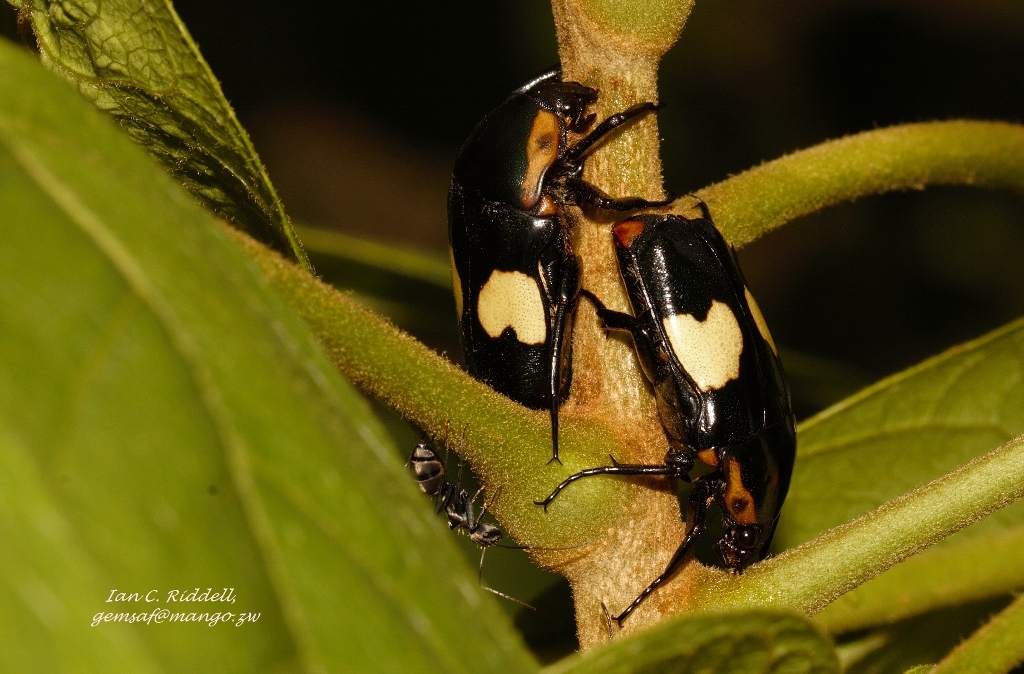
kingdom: Animalia
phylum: Arthropoda
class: Insecta
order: Coleoptera
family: Scarabaeidae
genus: Pedinorrhina
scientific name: Pedinorrhina
